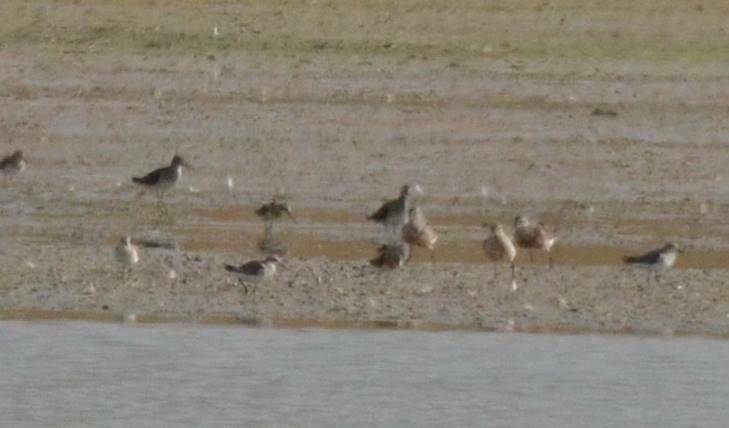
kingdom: Animalia
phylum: Chordata
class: Aves
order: Charadriiformes
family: Scolopacidae
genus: Calidris
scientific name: Calidris ferruginea
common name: Curlew sandpiper
